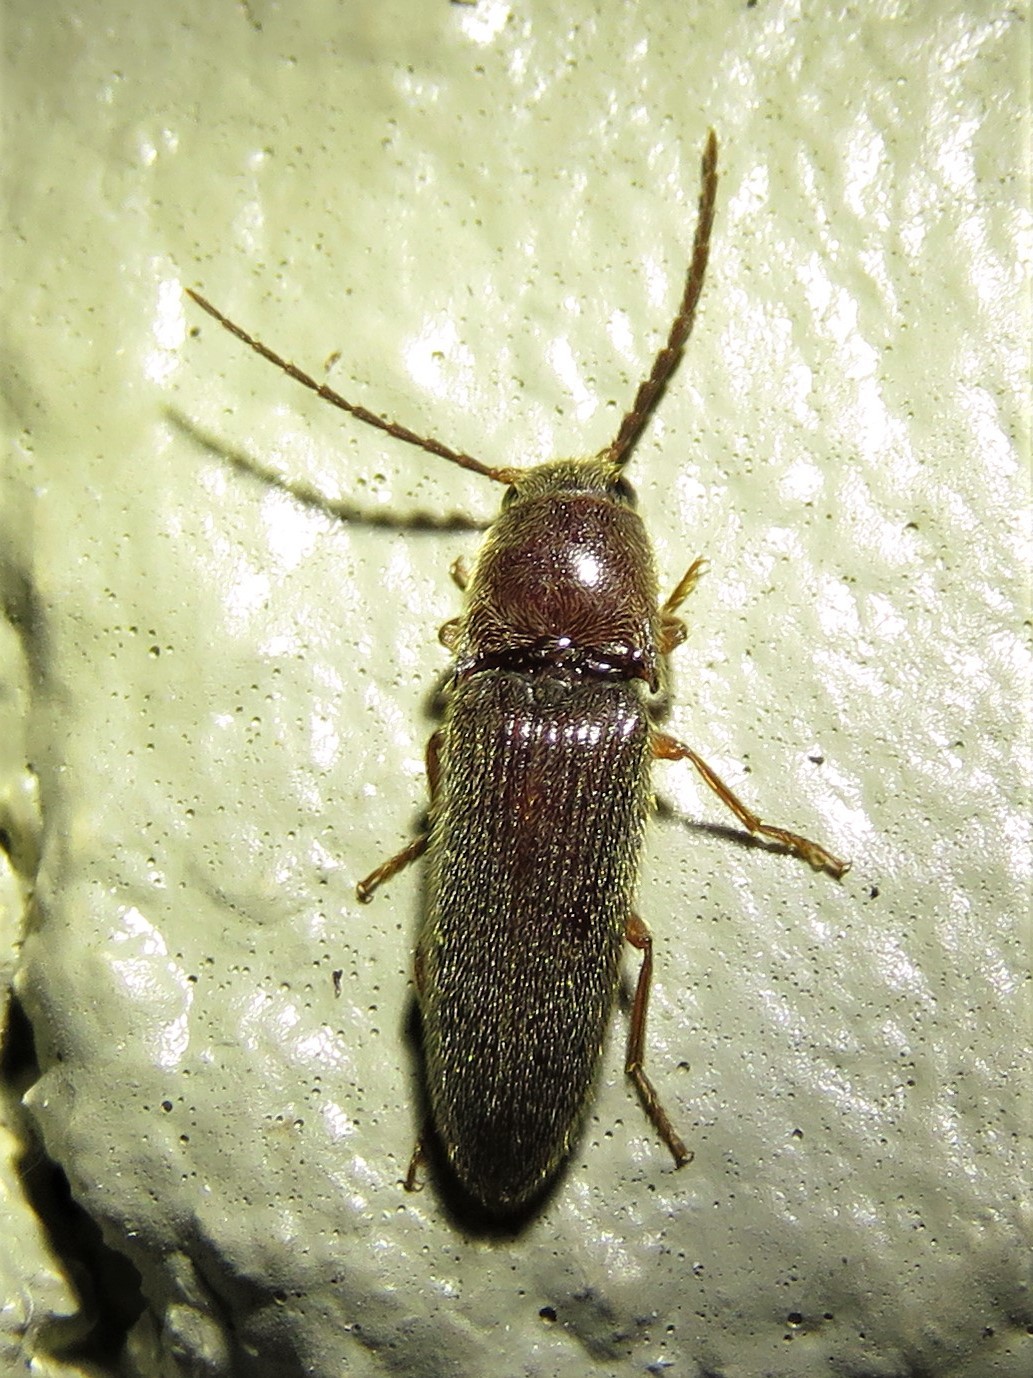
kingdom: Animalia
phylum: Arthropoda
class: Insecta
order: Coleoptera
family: Elateridae
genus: Dipropus
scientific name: Dipropus
